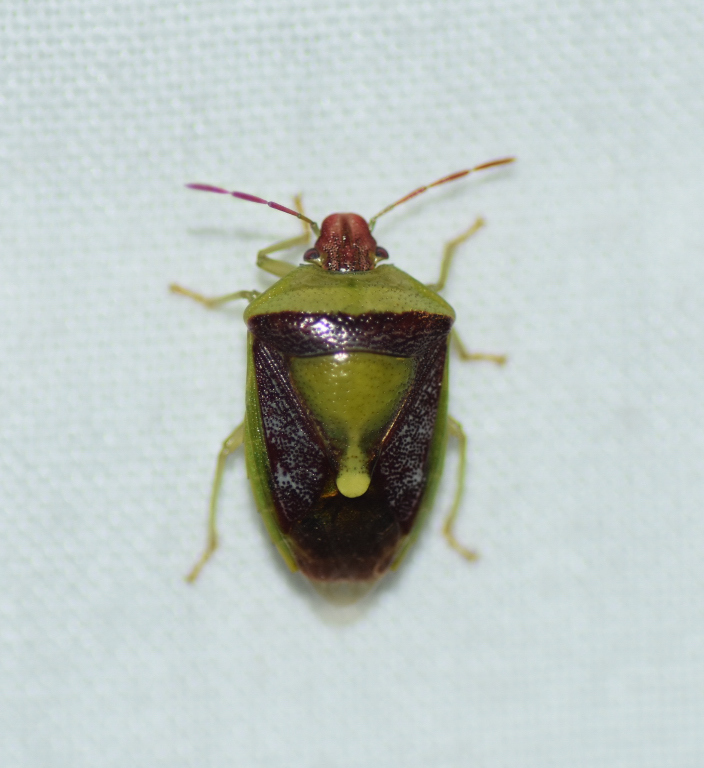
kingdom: Animalia
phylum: Arthropoda
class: Insecta
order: Hemiptera
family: Pentatomidae
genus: Banasa
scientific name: Banasa dimidiata
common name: Green burgundy stink bug
